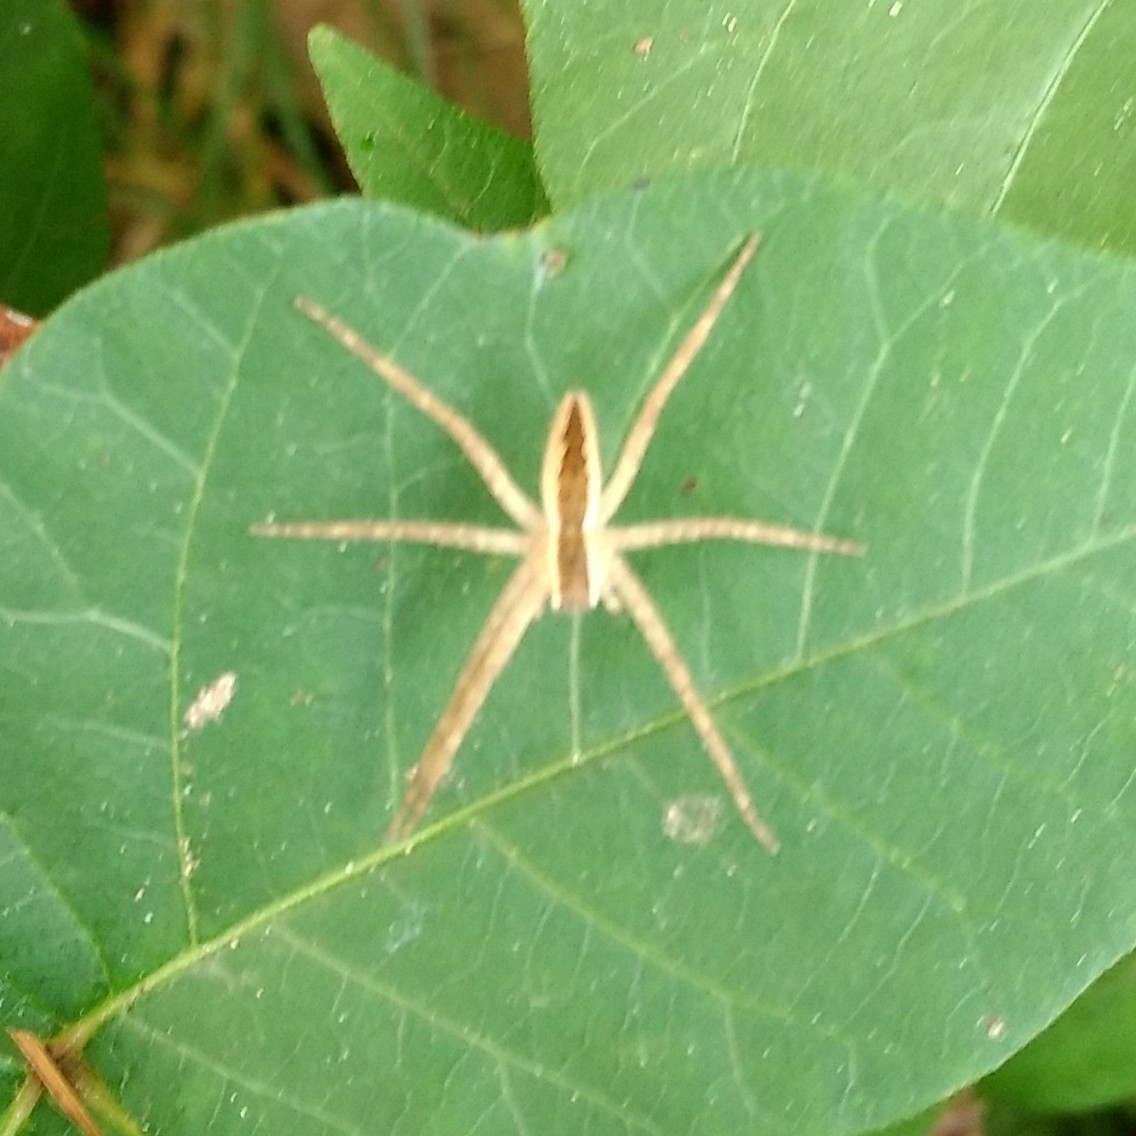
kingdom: Animalia
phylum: Arthropoda
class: Arachnida
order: Araneae
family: Pisauridae
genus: Pisaurina
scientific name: Pisaurina mira
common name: American nursery web spider
